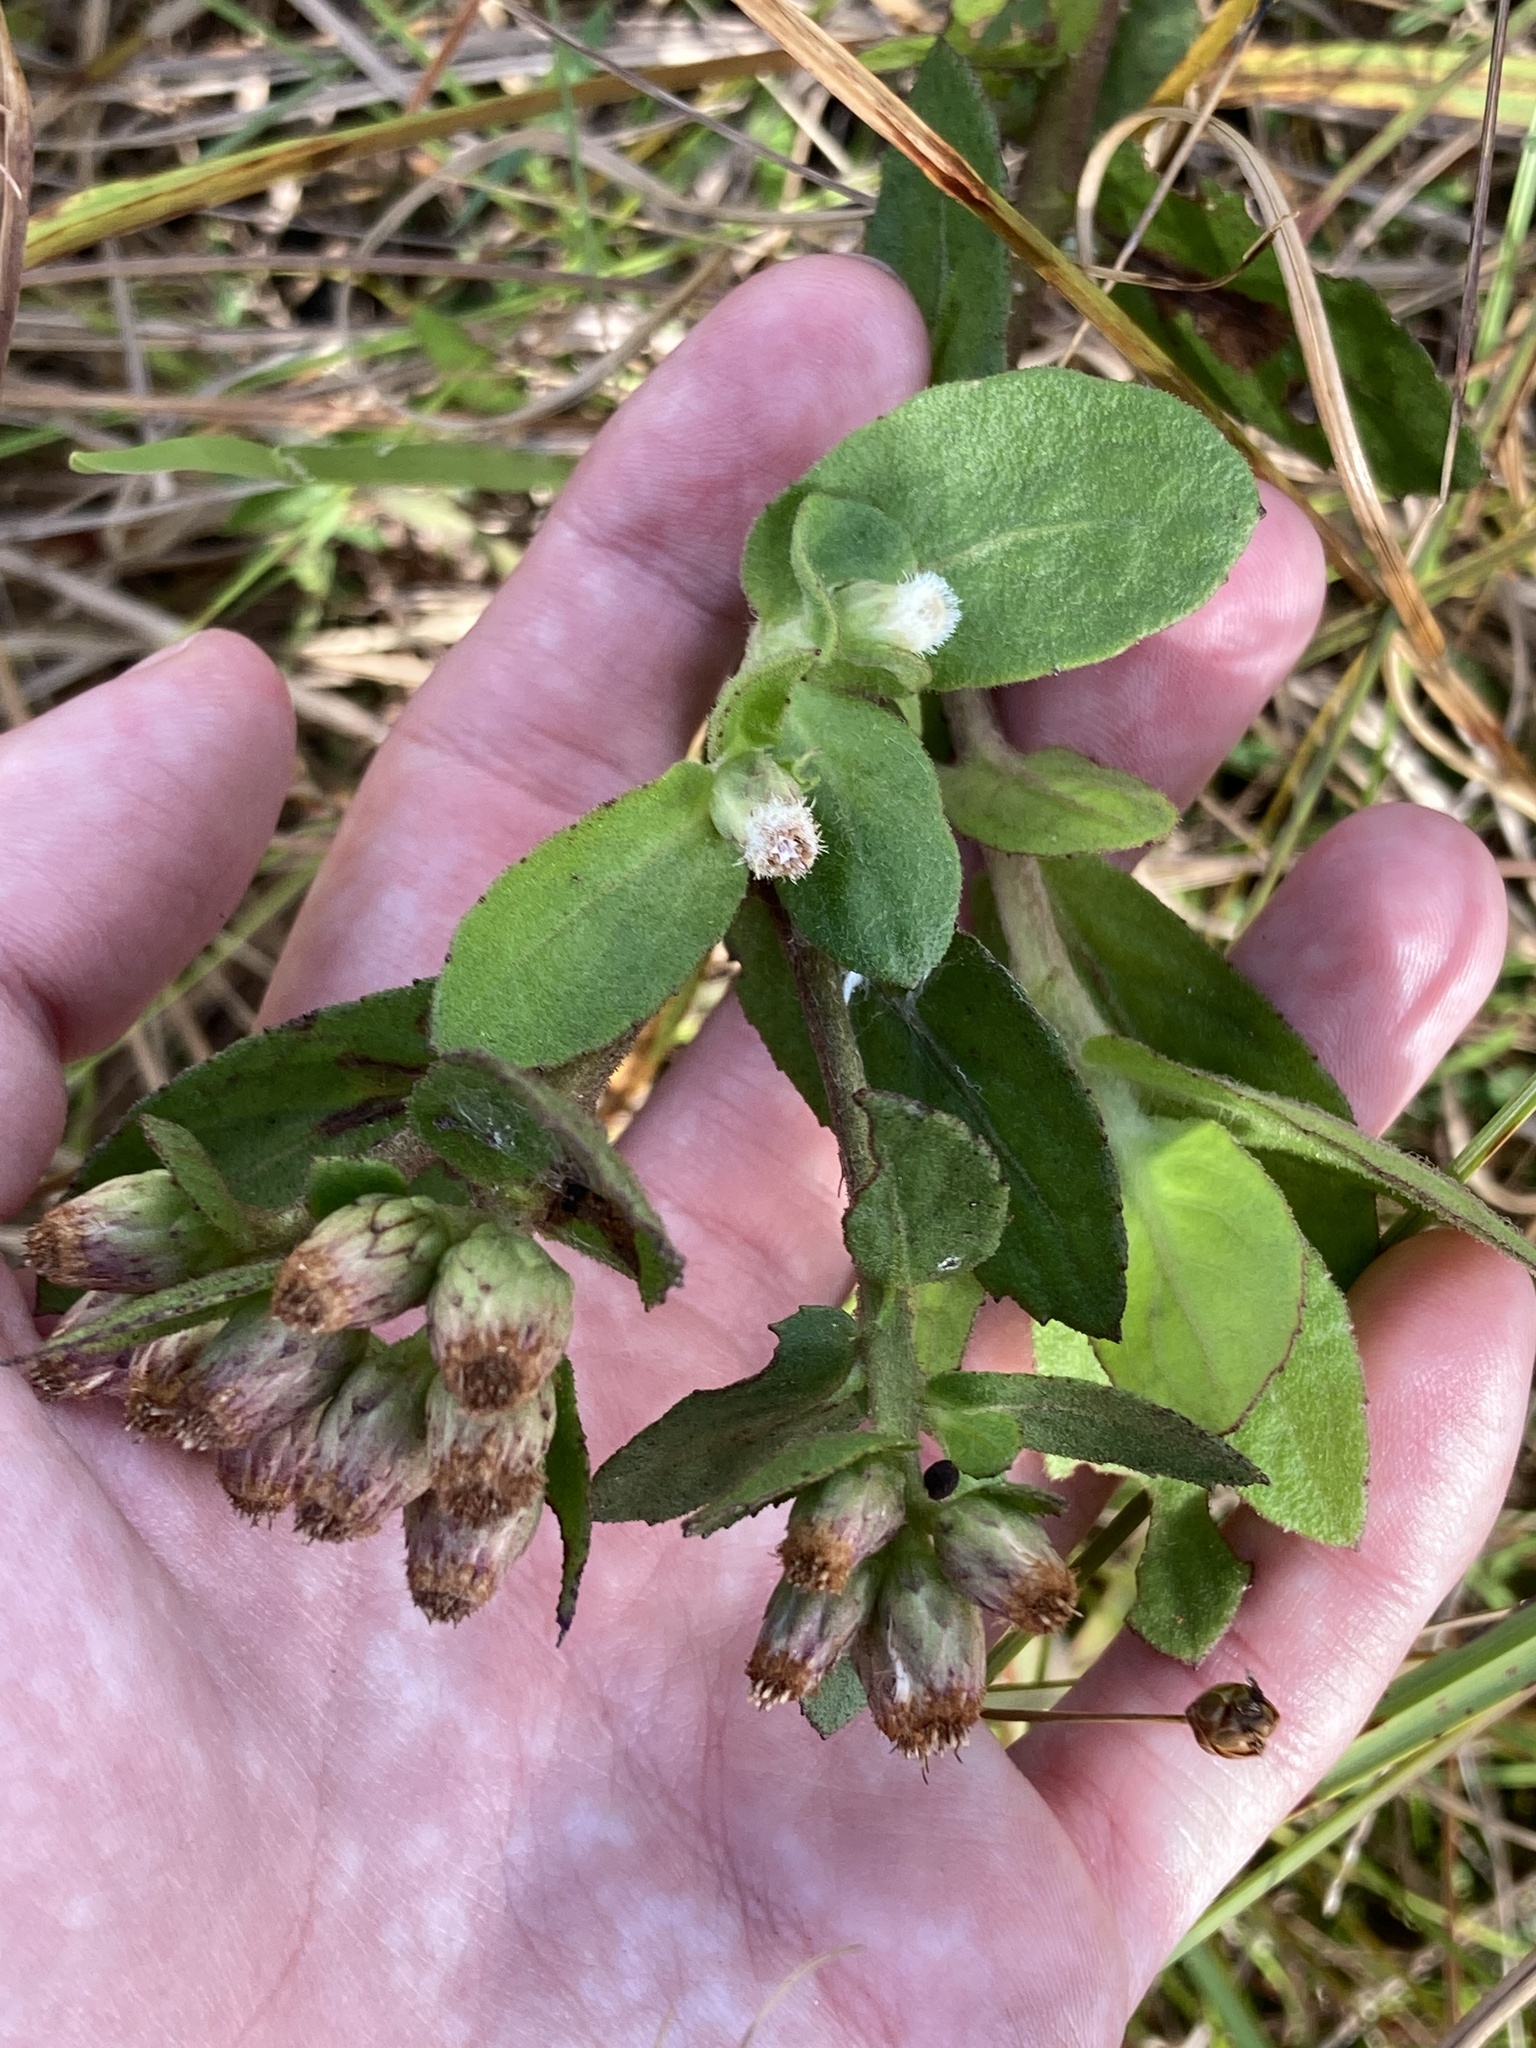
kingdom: Plantae
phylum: Tracheophyta
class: Magnoliopsida
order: Asterales
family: Asteraceae
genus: Pluchea
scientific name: Pluchea foetida
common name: Stinking camphorweed
